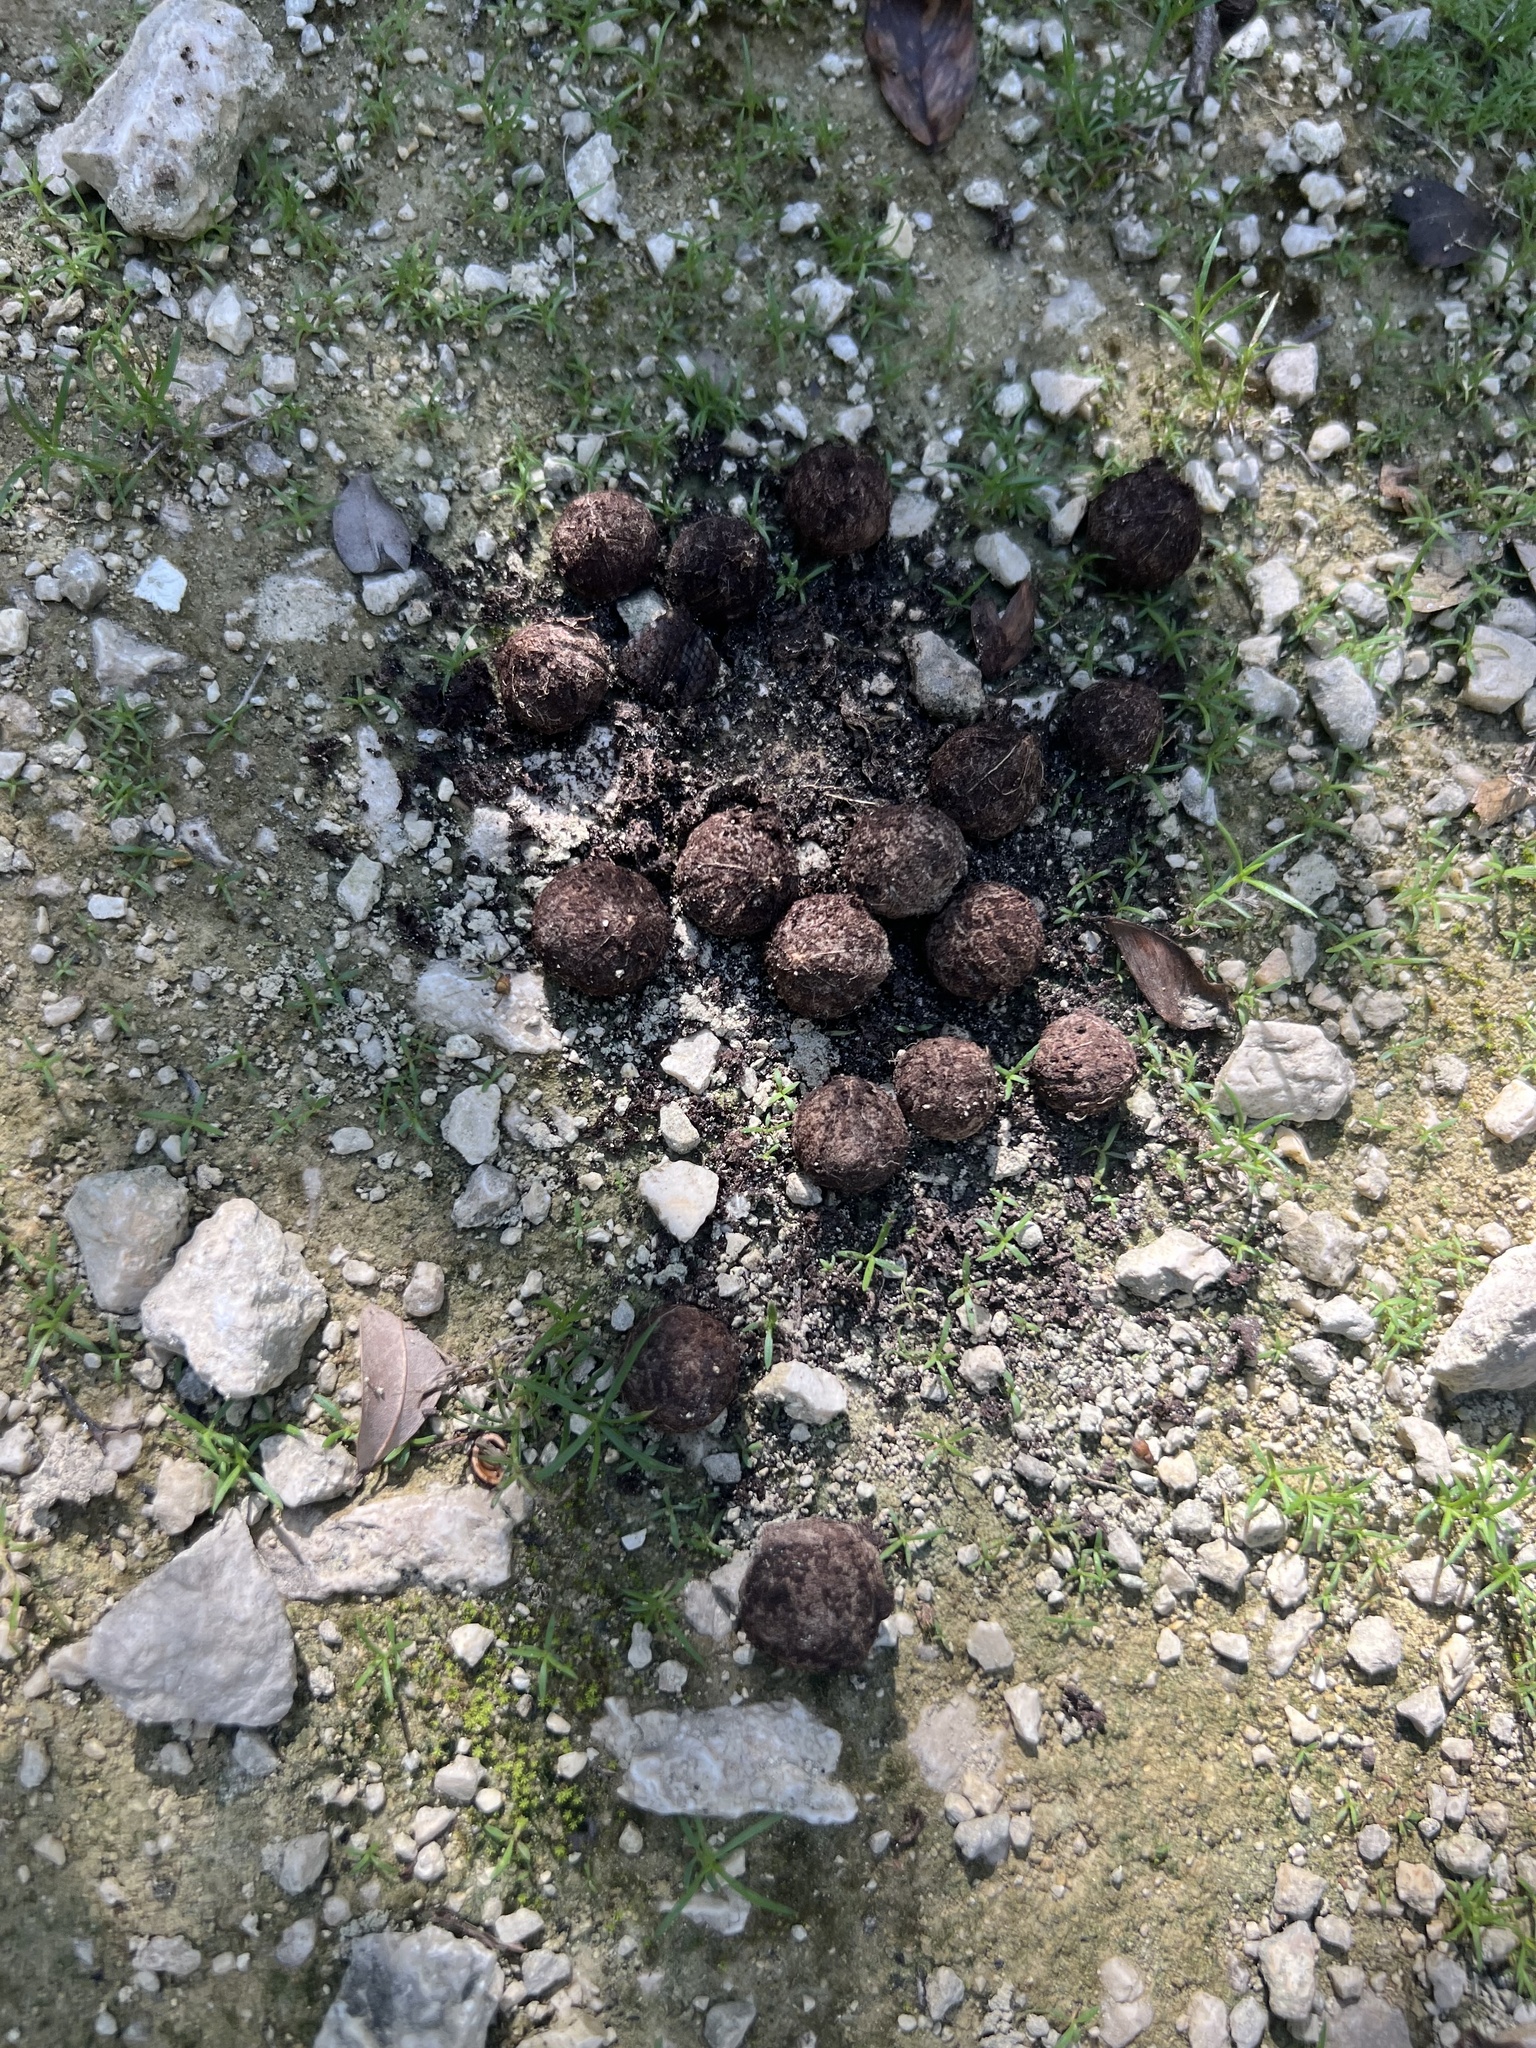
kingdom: Animalia
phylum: Chordata
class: Mammalia
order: Rodentia
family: Dasyproctidae
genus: Dasyprocta
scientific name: Dasyprocta punctata
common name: Central american agouti
